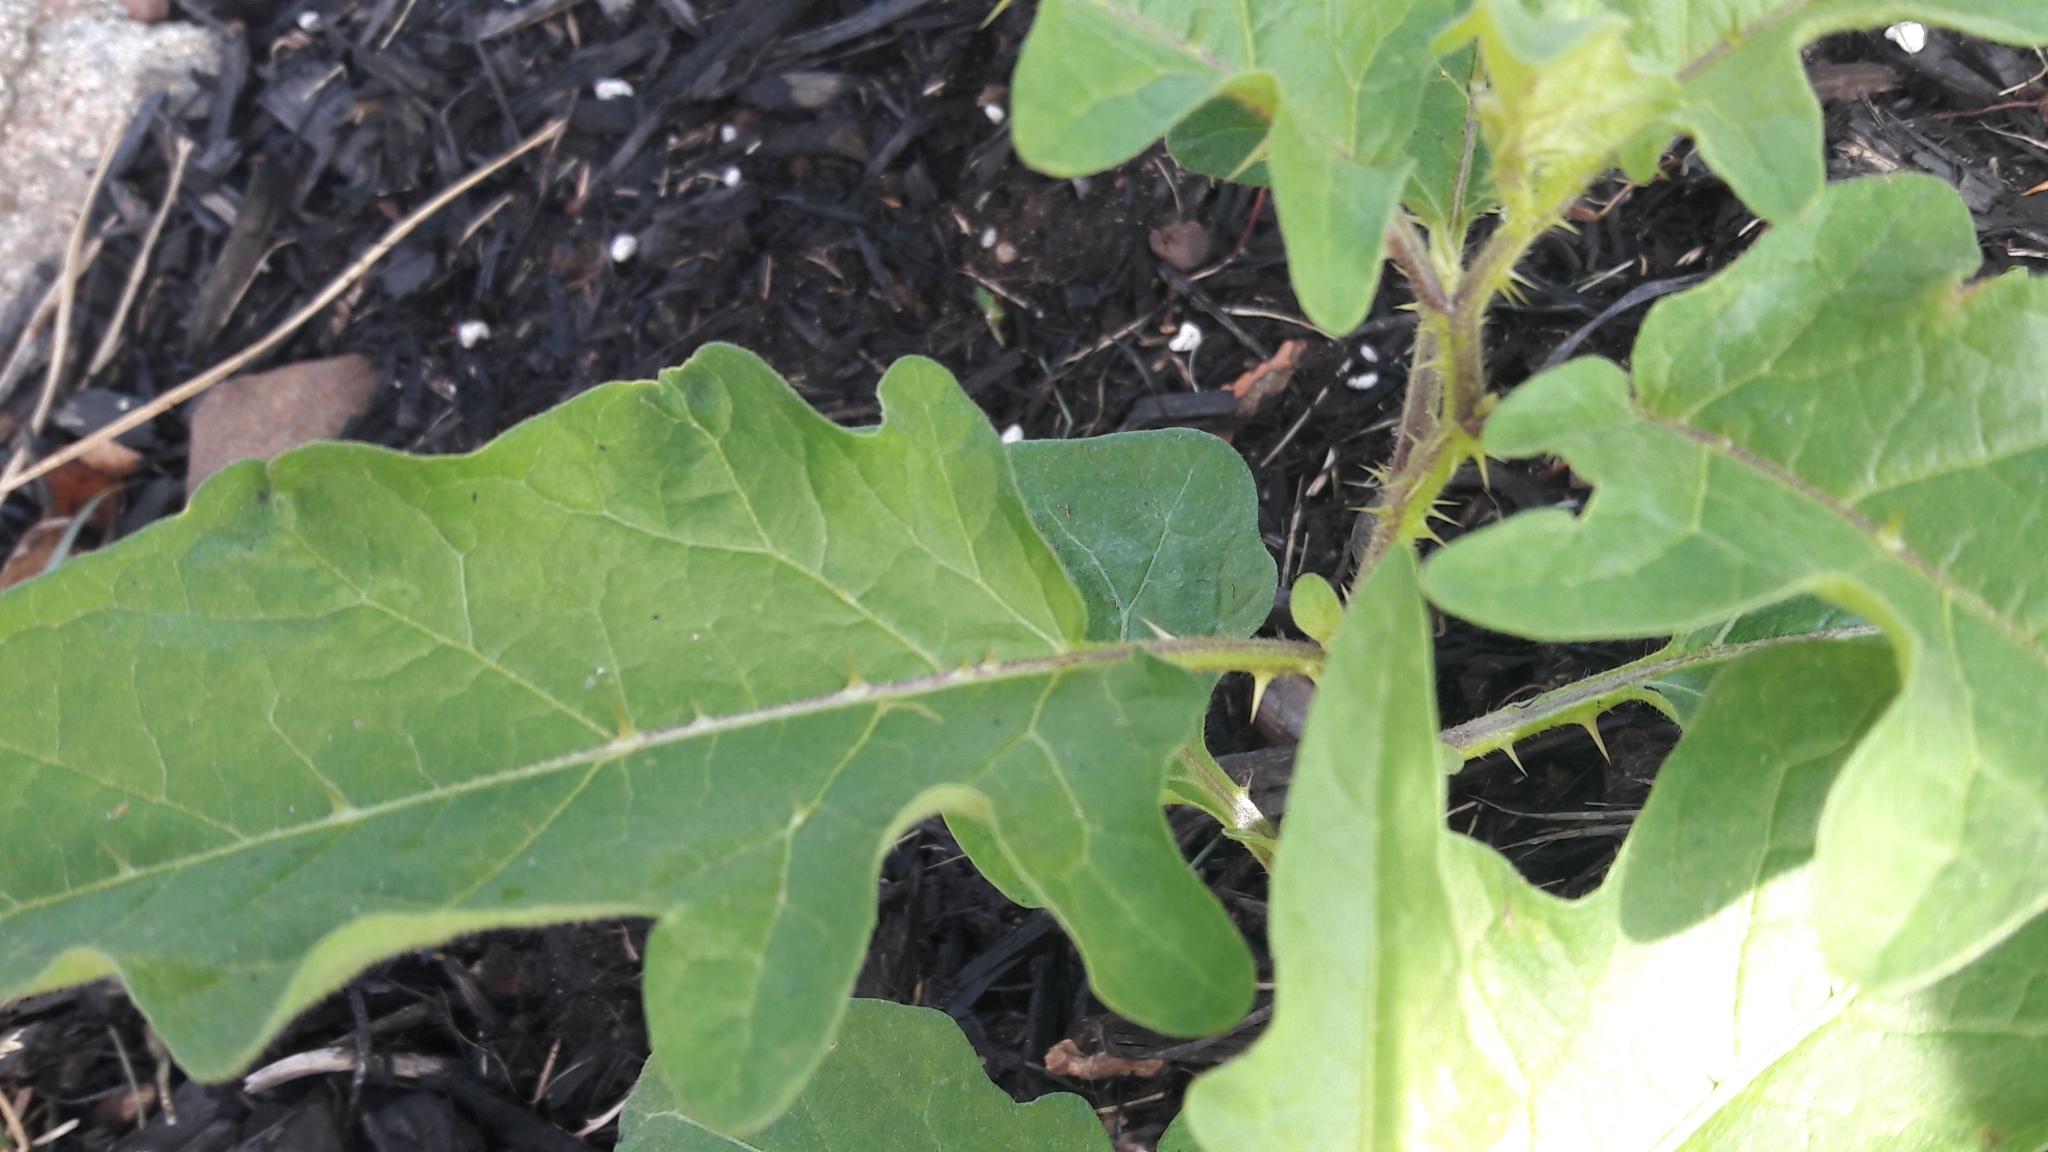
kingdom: Plantae
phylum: Tracheophyta
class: Magnoliopsida
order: Solanales
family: Solanaceae
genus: Solanum
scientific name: Solanum carolinense
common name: Horse-nettle
